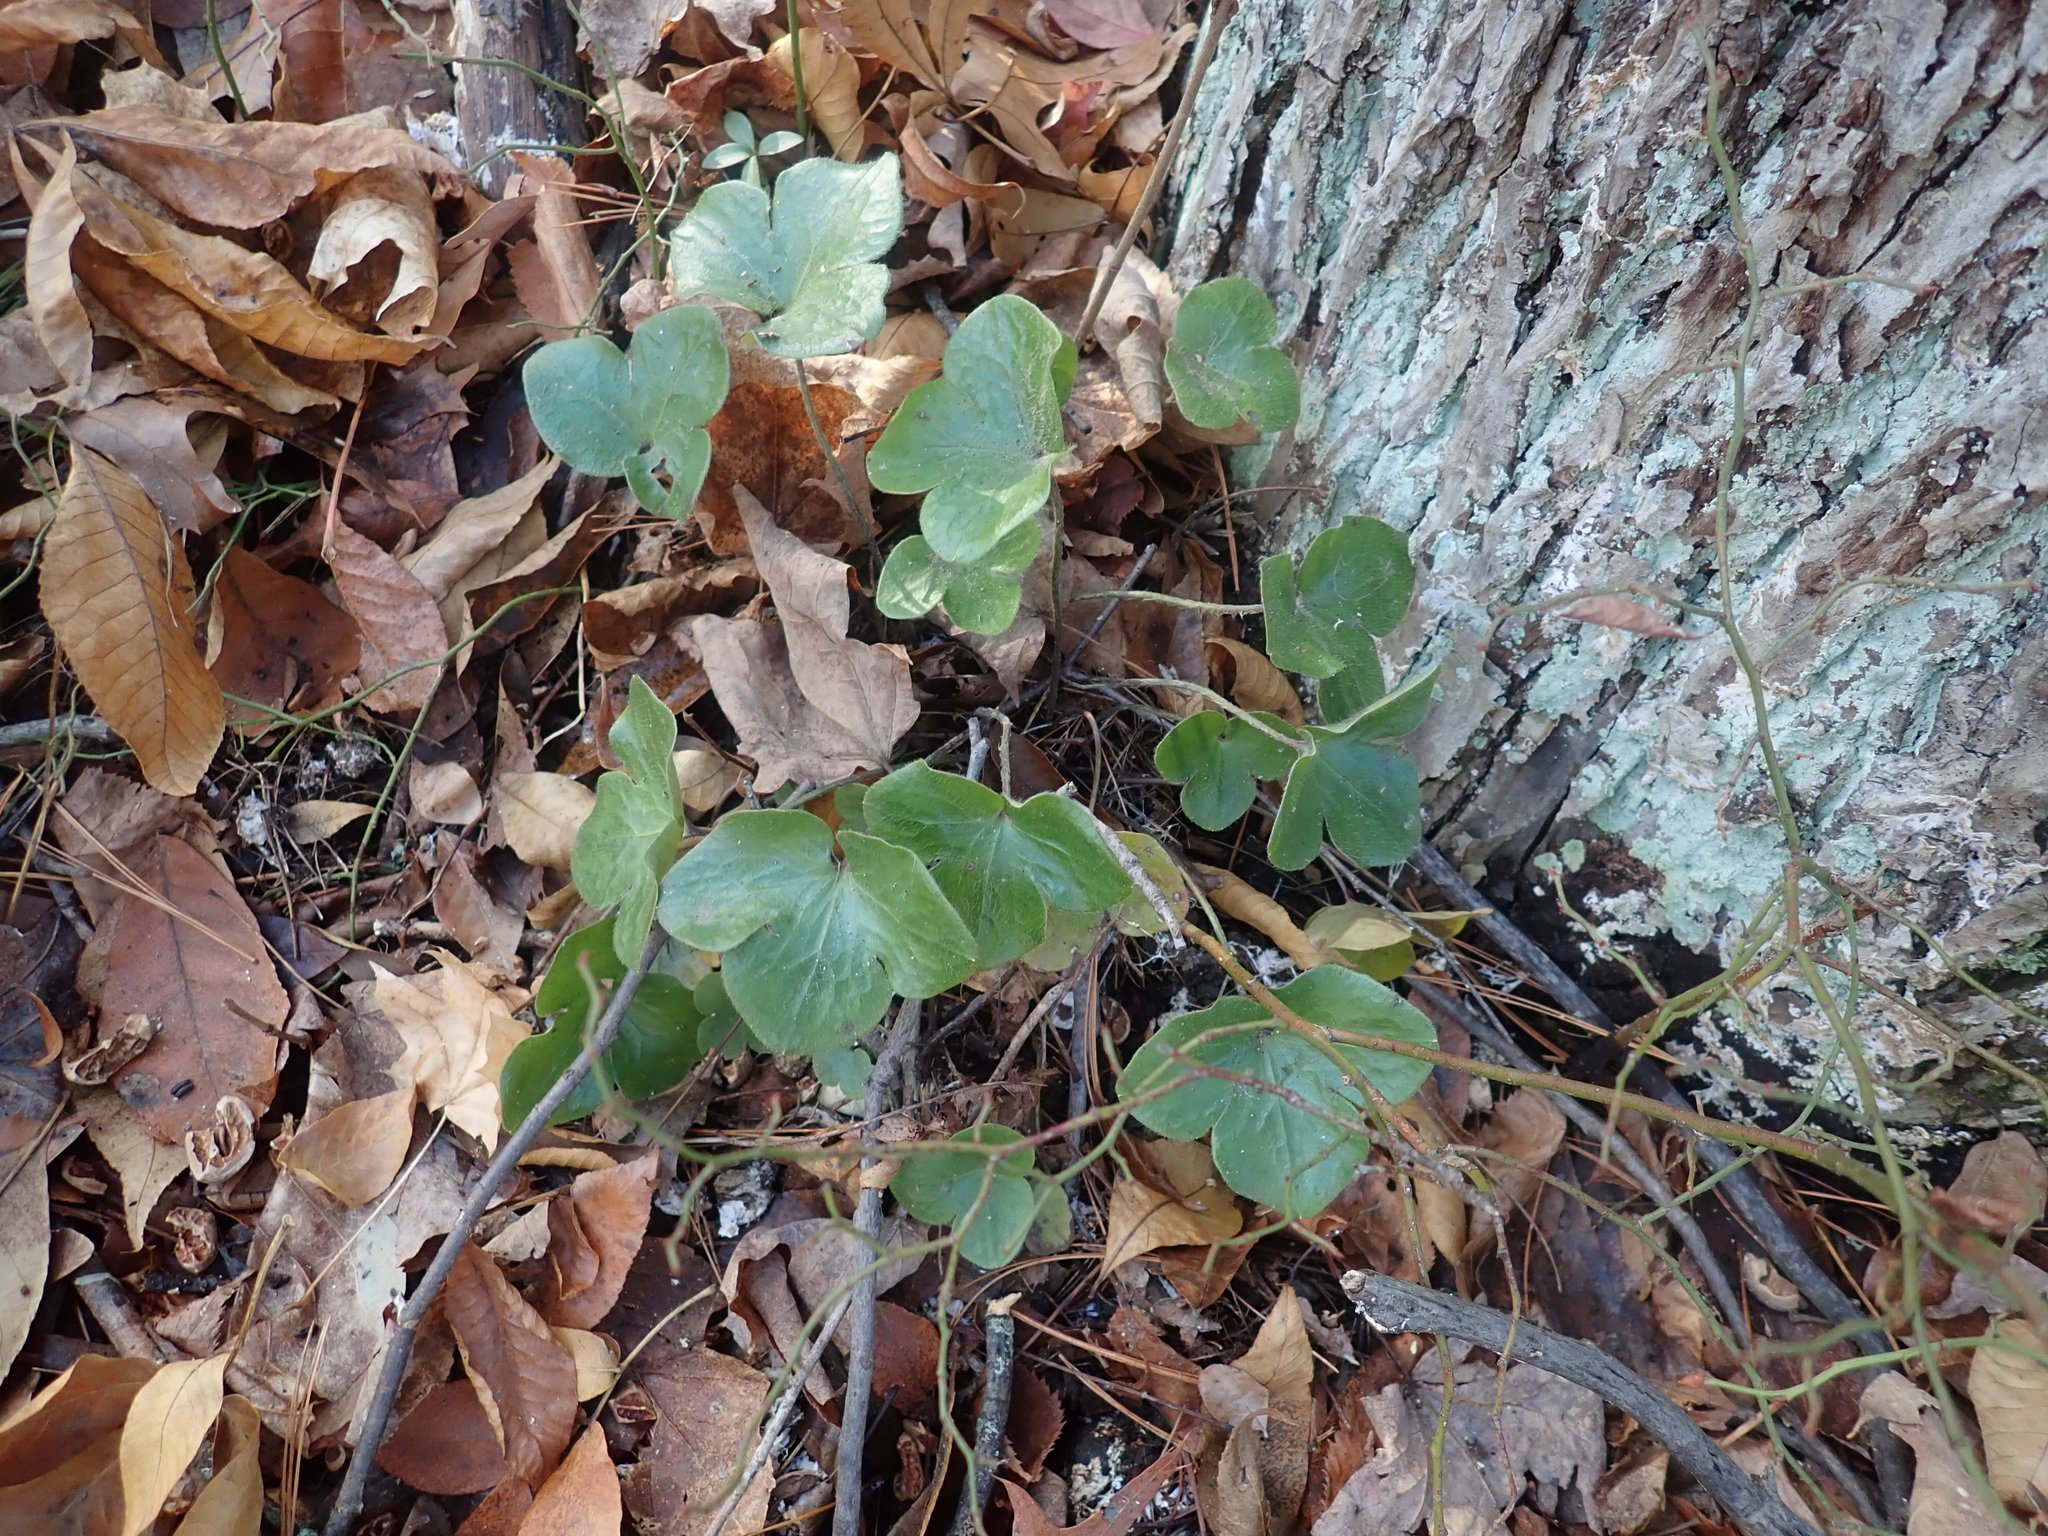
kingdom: Plantae
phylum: Tracheophyta
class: Magnoliopsida
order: Ranunculales
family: Ranunculaceae
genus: Hepatica
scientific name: Hepatica americana
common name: American hepatica
